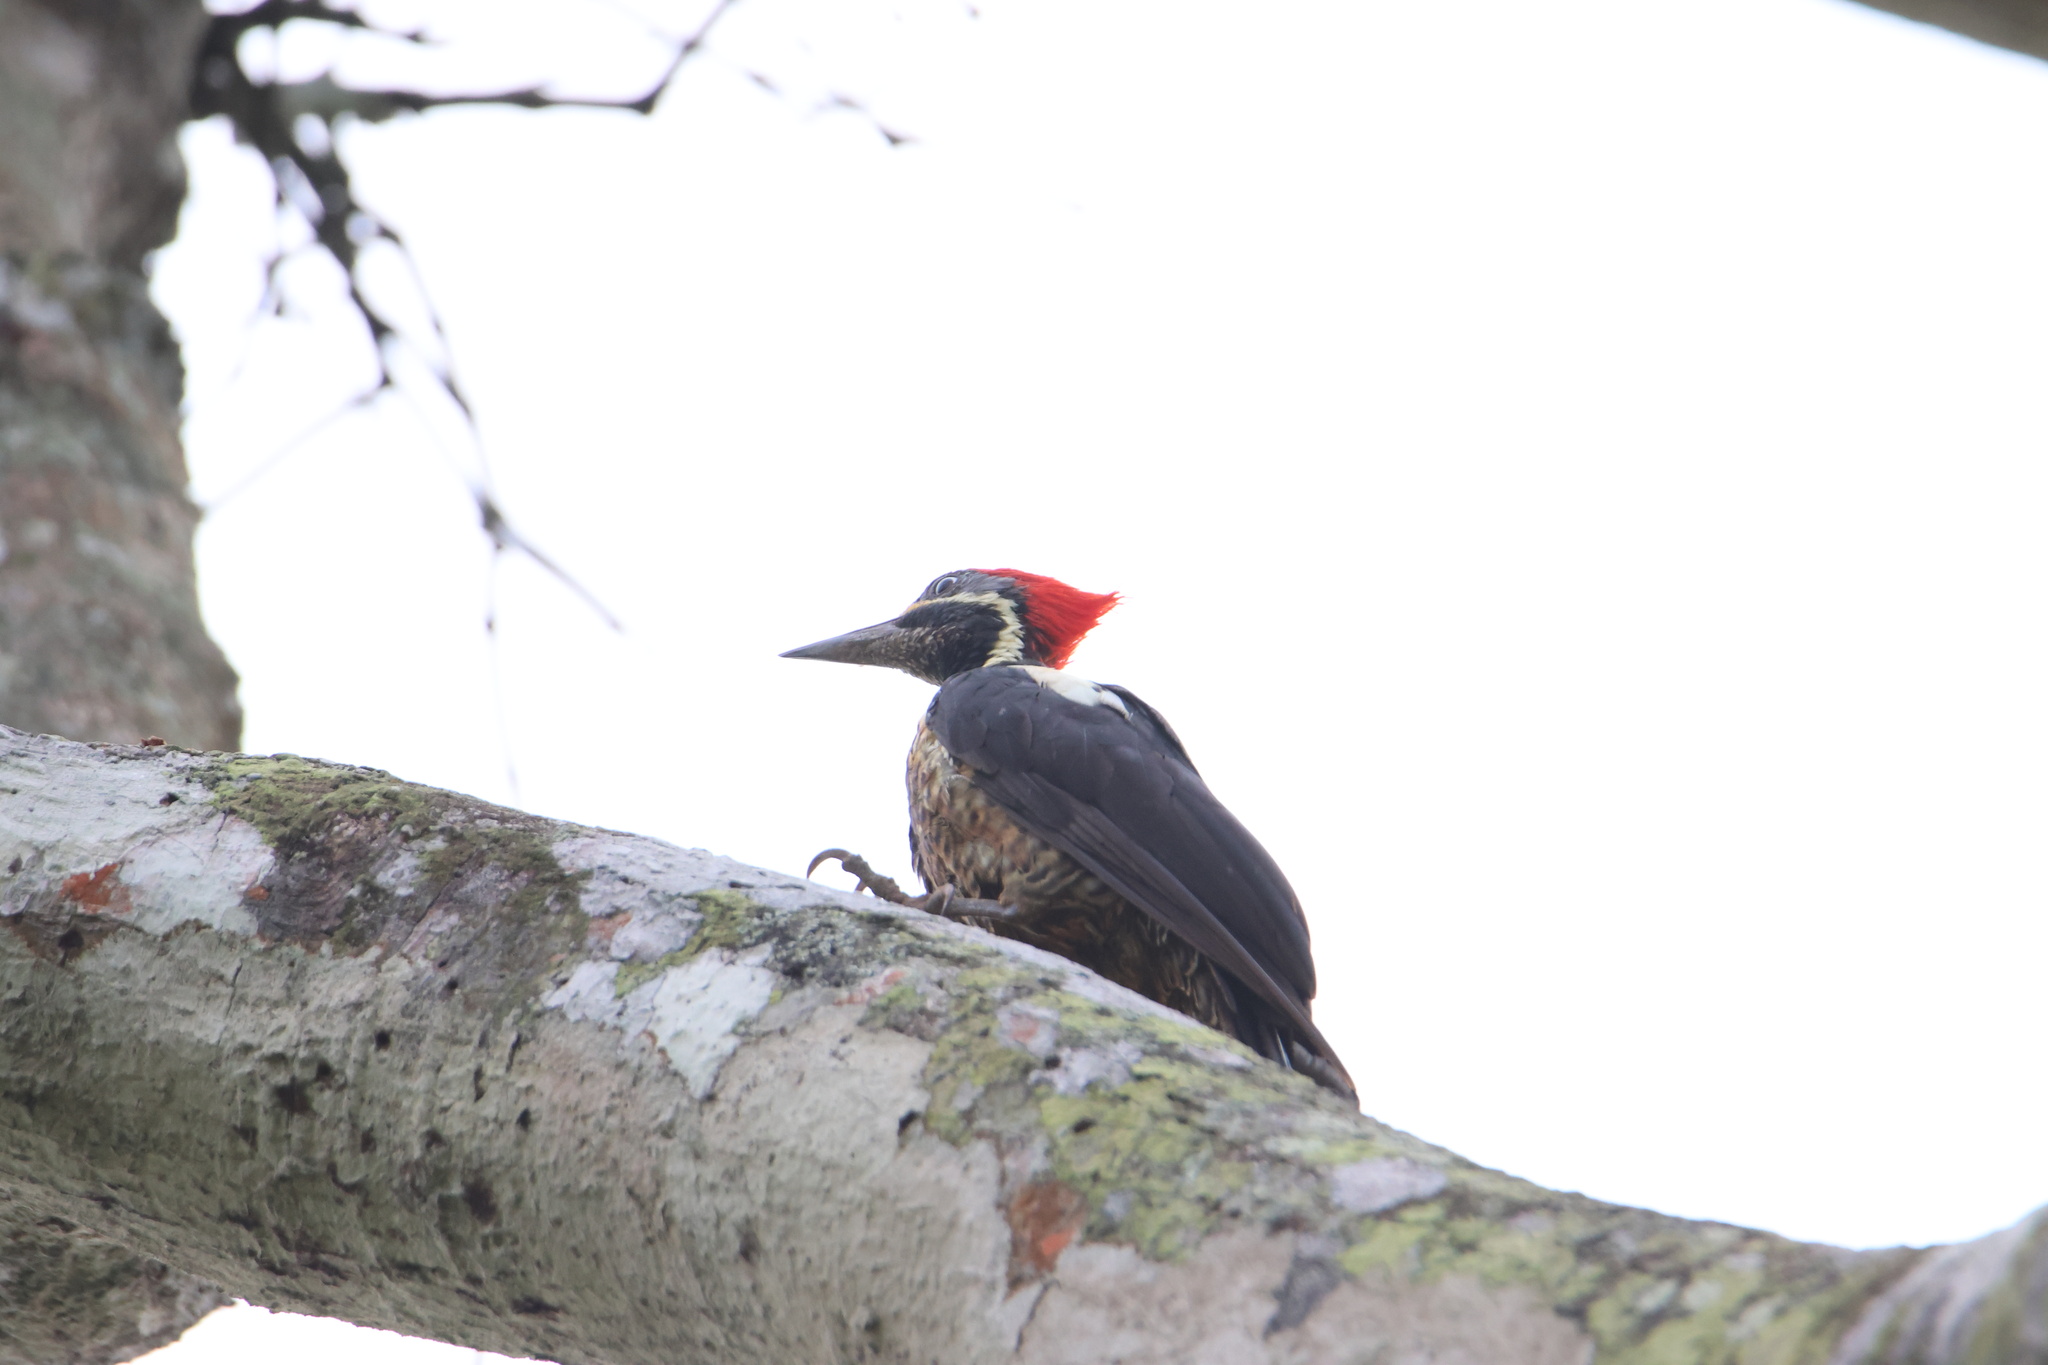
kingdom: Animalia
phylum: Chordata
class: Aves
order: Piciformes
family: Picidae
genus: Dryocopus
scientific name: Dryocopus lineatus
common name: Lineated woodpecker
